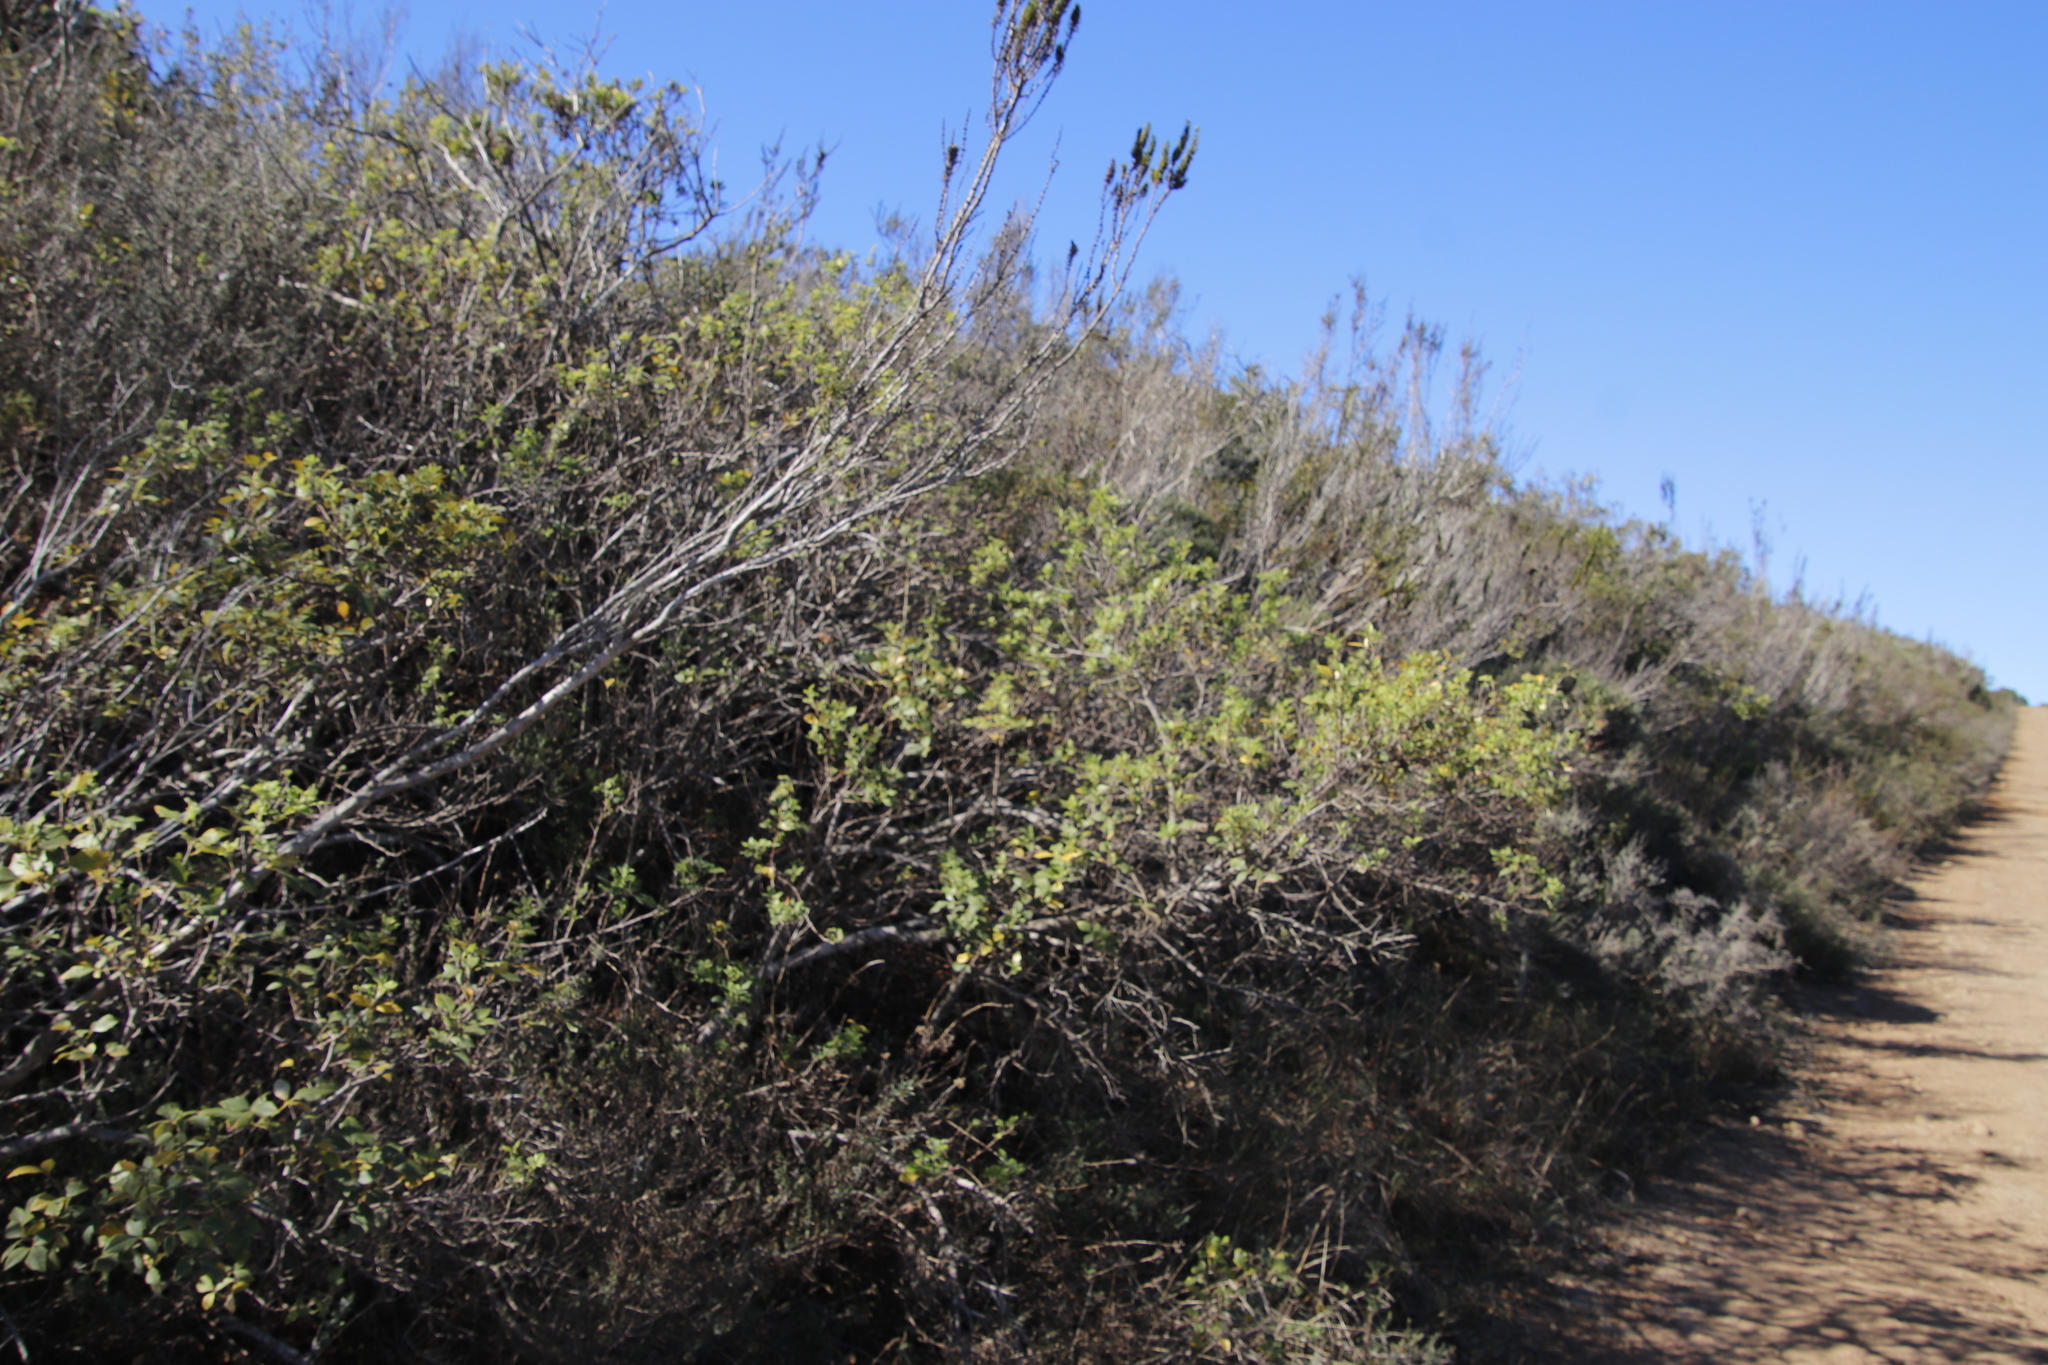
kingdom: Plantae
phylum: Tracheophyta
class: Magnoliopsida
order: Sapindales
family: Anacardiaceae
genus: Searsia
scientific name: Searsia tomentosa
